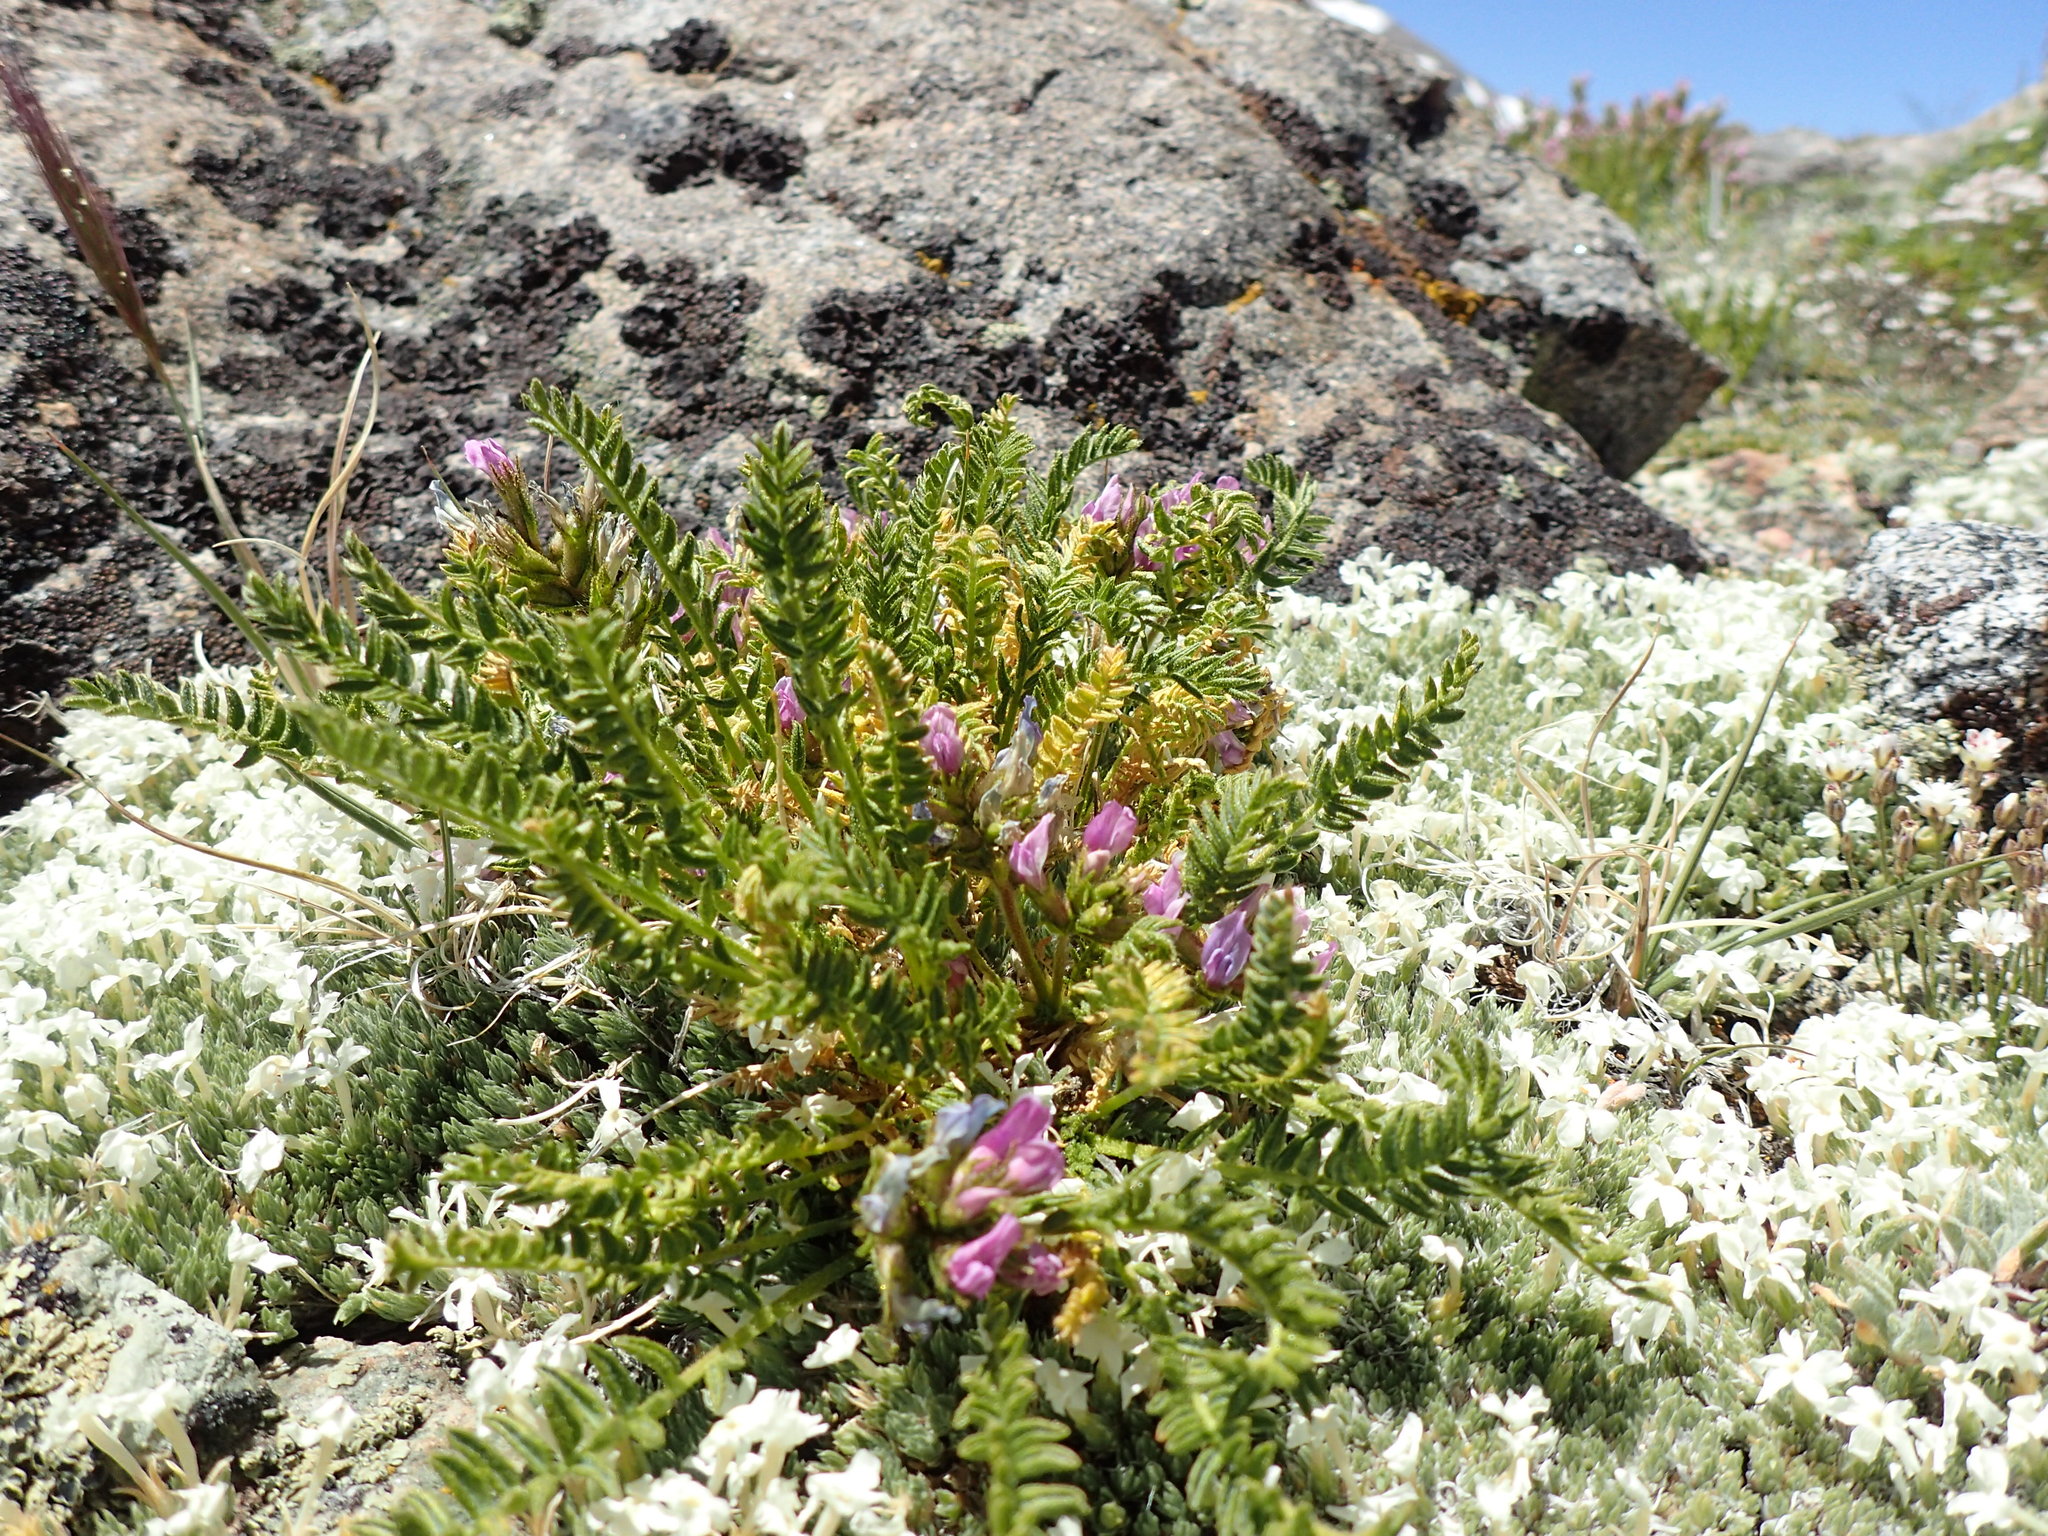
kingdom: Plantae
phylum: Tracheophyta
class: Magnoliopsida
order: Fabales
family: Fabaceae
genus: Oxytropis
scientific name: Oxytropis borealis
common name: Boreal locoweed
